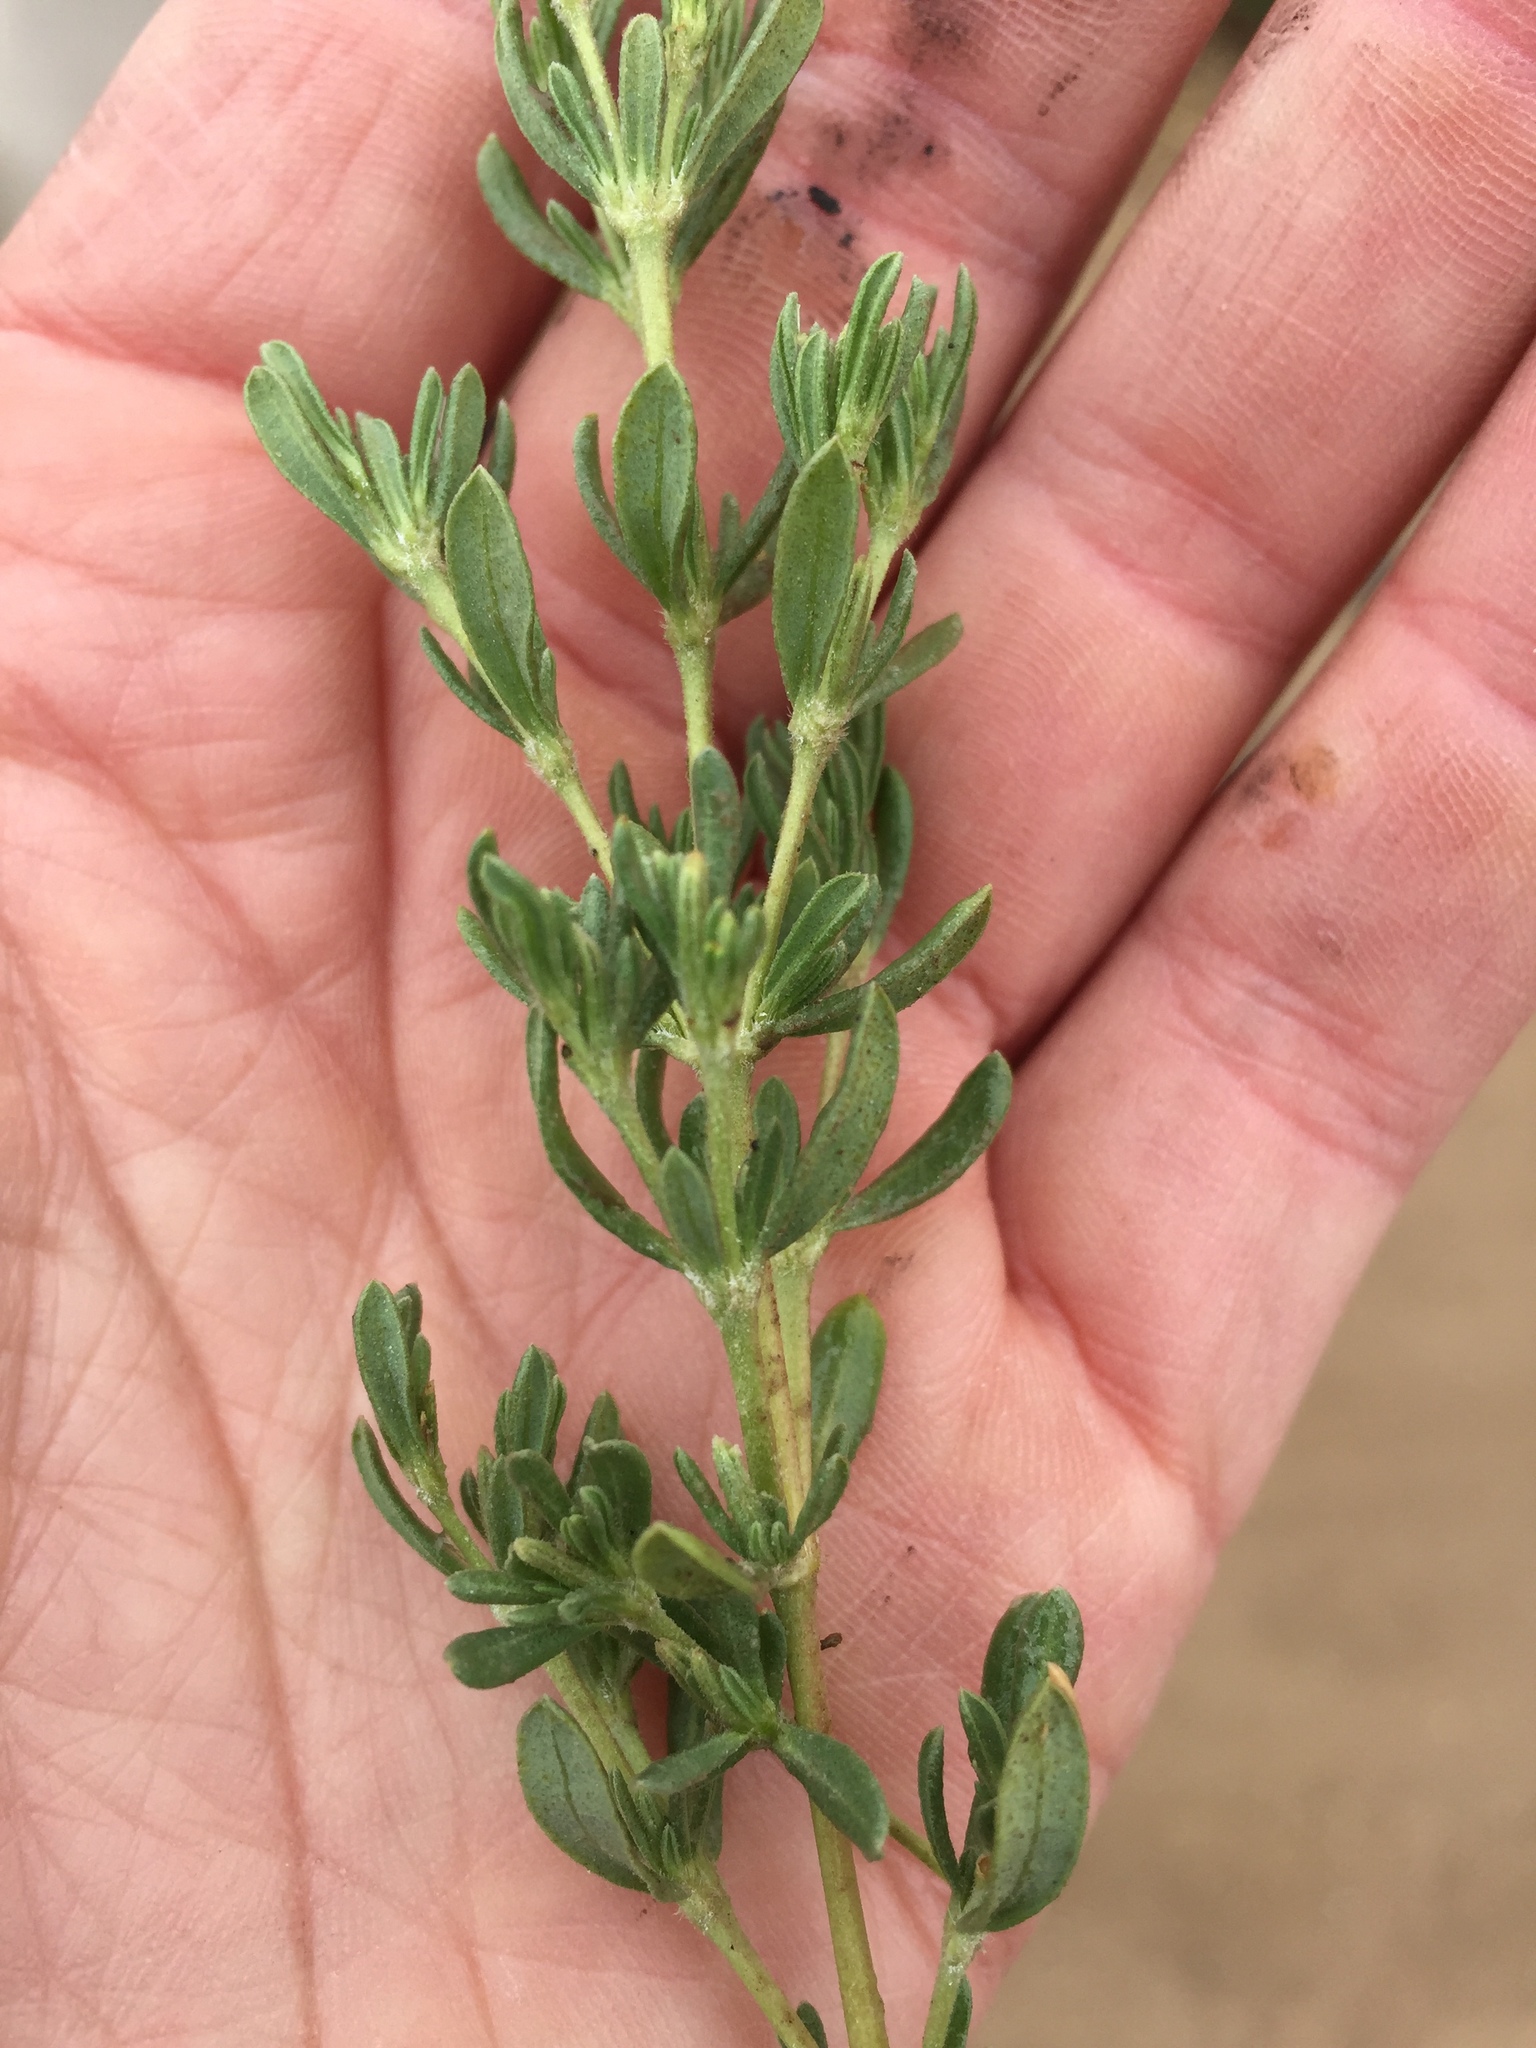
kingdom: Plantae
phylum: Tracheophyta
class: Magnoliopsida
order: Caryophyllales
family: Frankeniaceae
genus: Frankenia
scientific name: Frankenia salina
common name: Alkali seaheath
